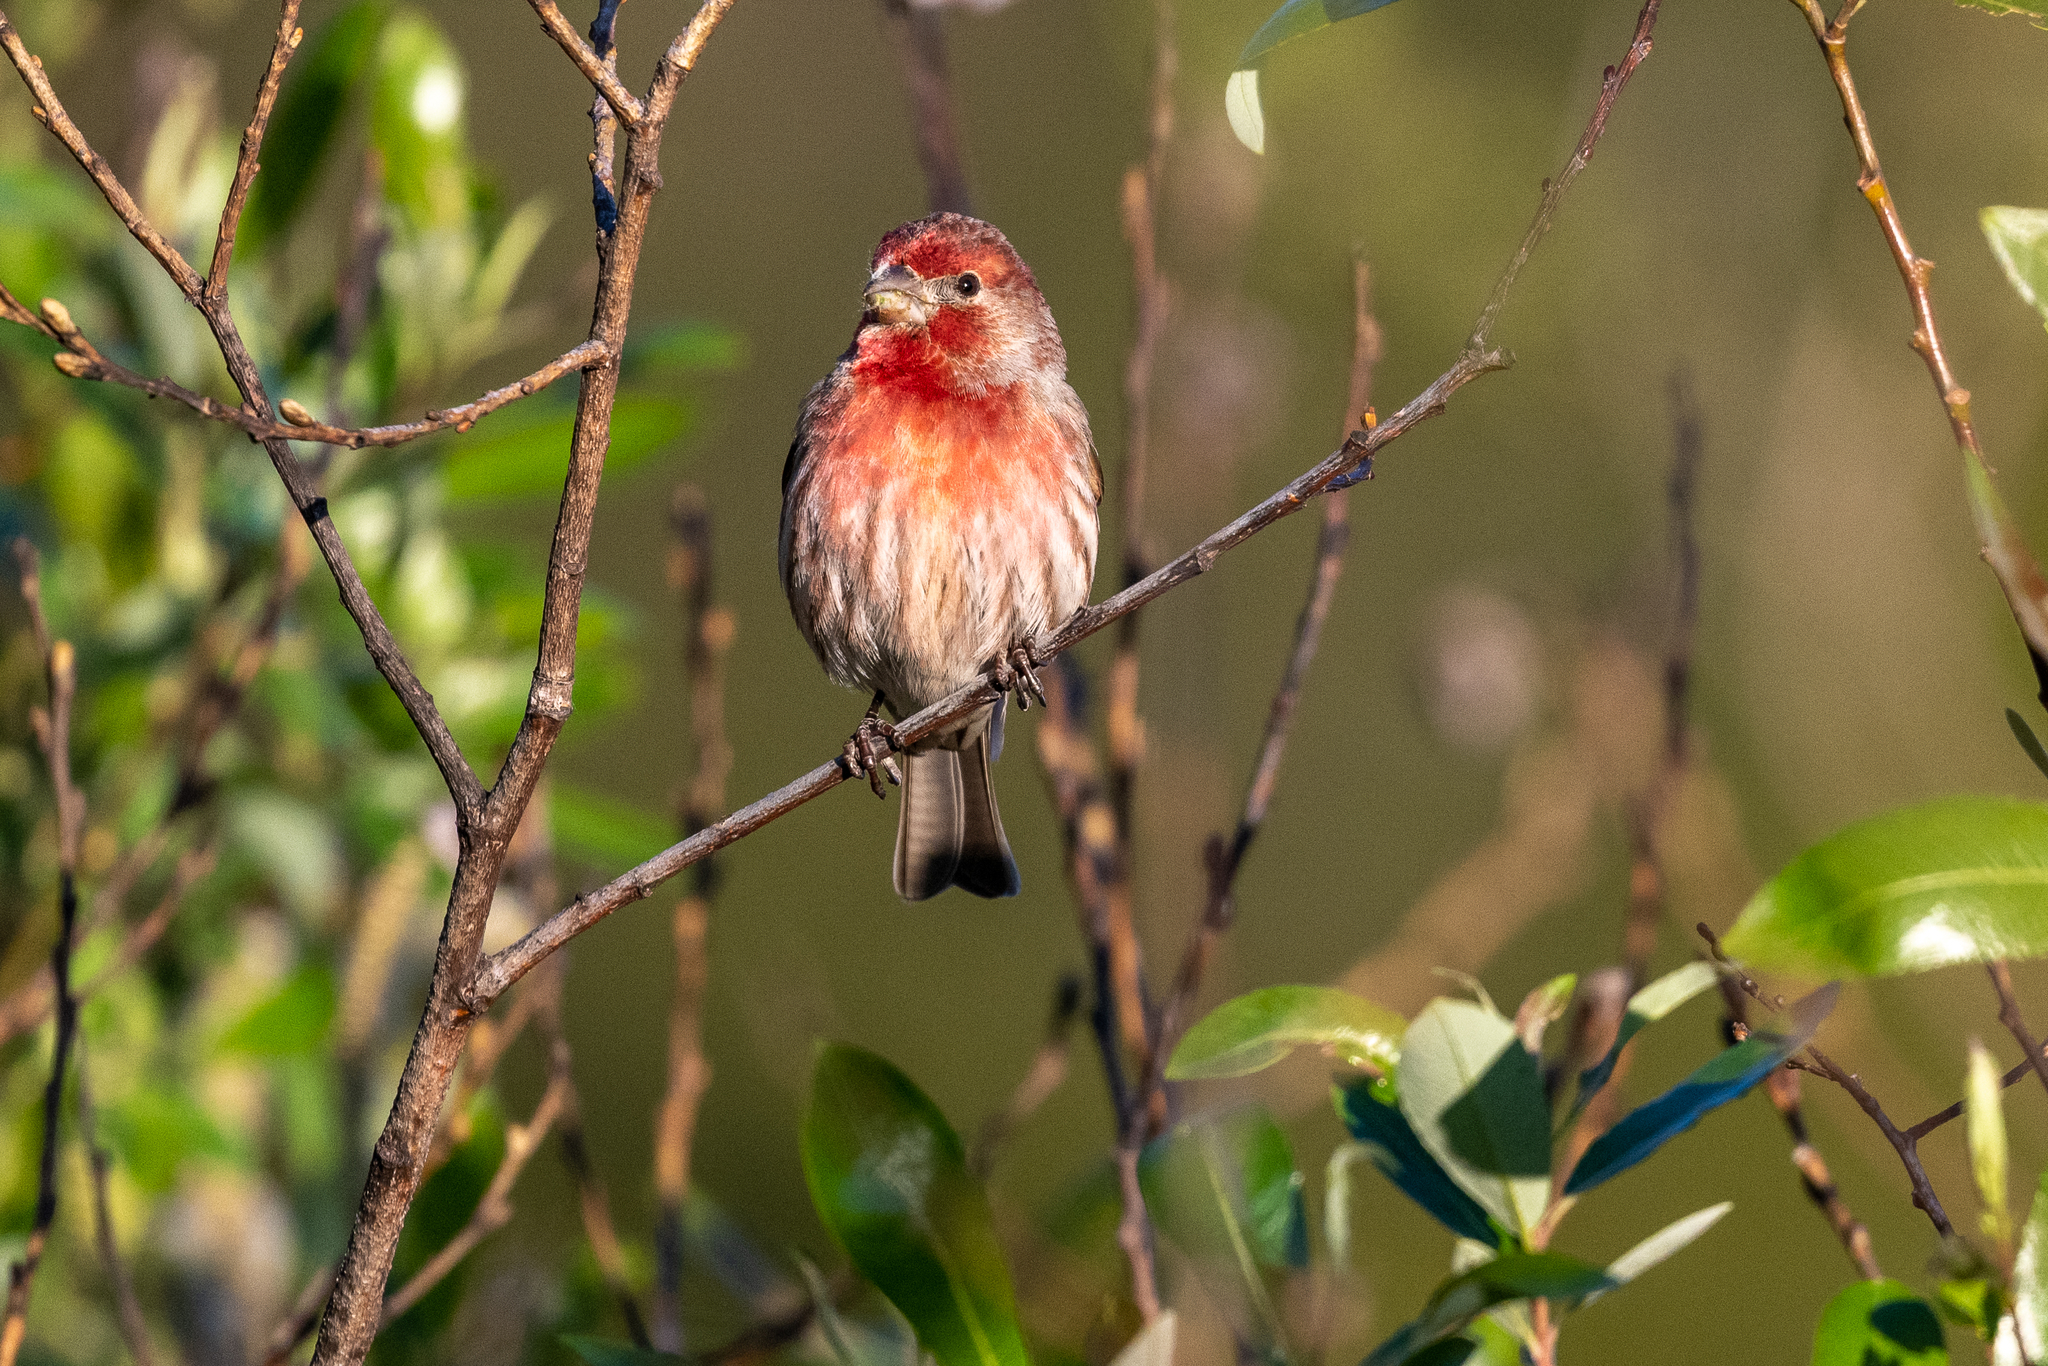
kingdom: Animalia
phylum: Chordata
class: Aves
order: Passeriformes
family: Fringillidae
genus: Haemorhous
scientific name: Haemorhous mexicanus
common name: House finch
